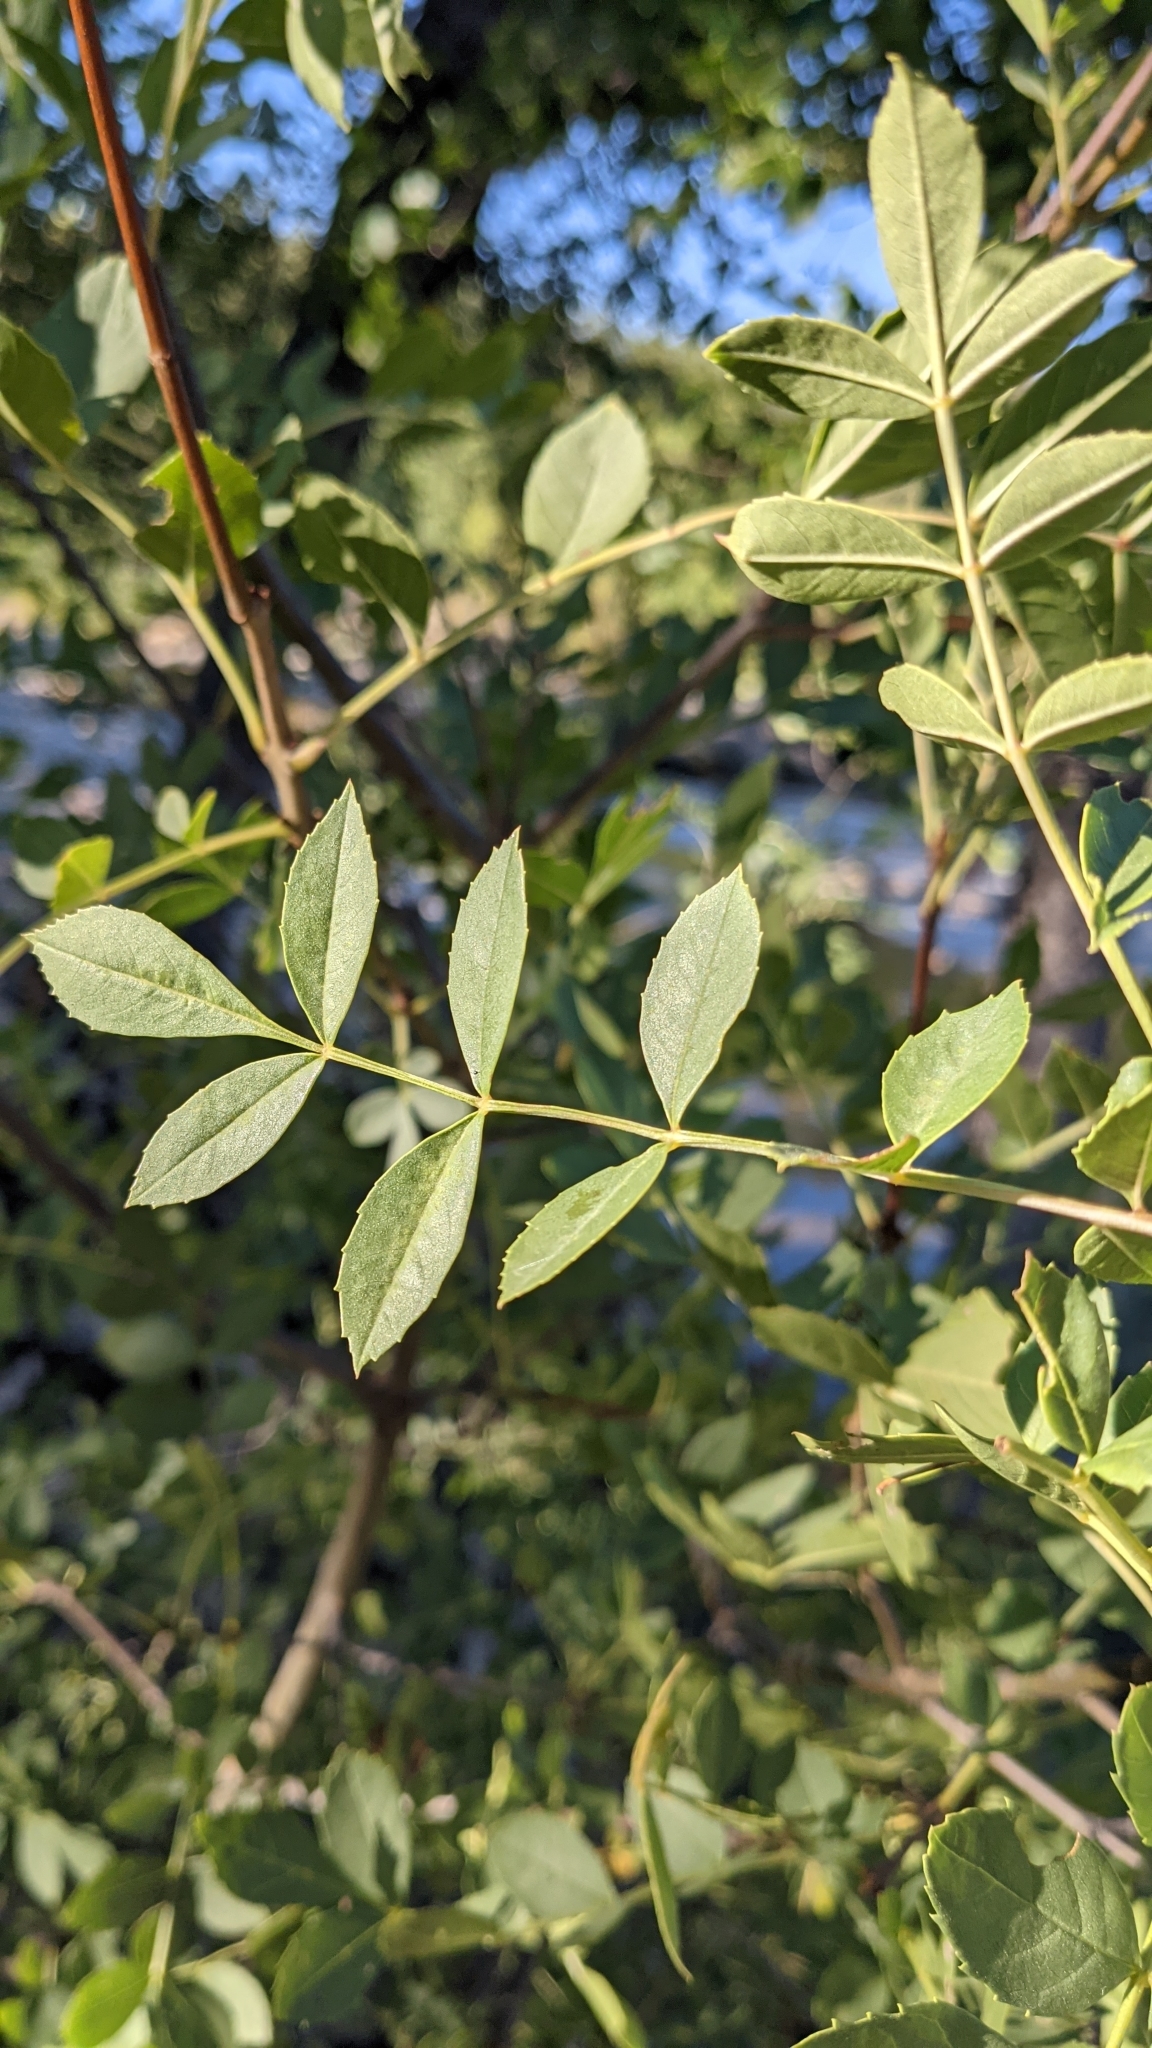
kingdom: Plantae
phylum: Tracheophyta
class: Magnoliopsida
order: Lamiales
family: Oleaceae
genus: Fraxinus
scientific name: Fraxinus angustifolia
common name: Narrow-leafed ash
